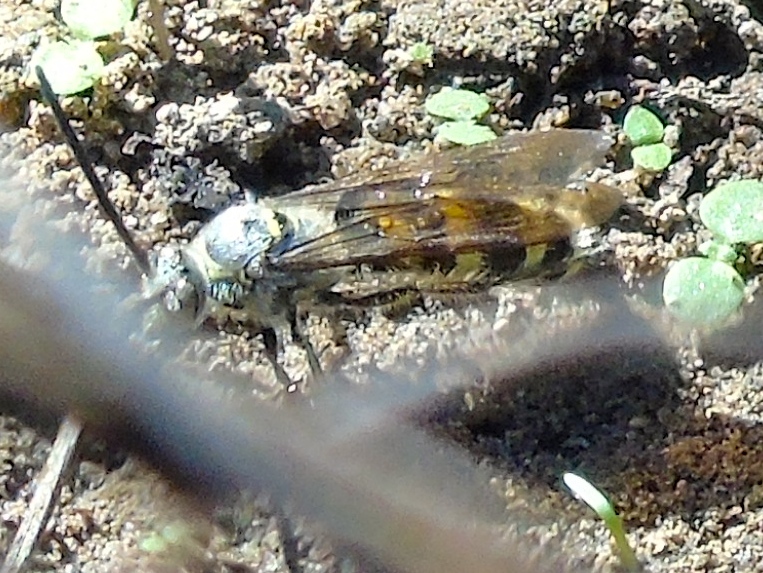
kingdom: Animalia
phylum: Arthropoda
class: Insecta
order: Hymenoptera
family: Scoliidae
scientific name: Scoliidae
